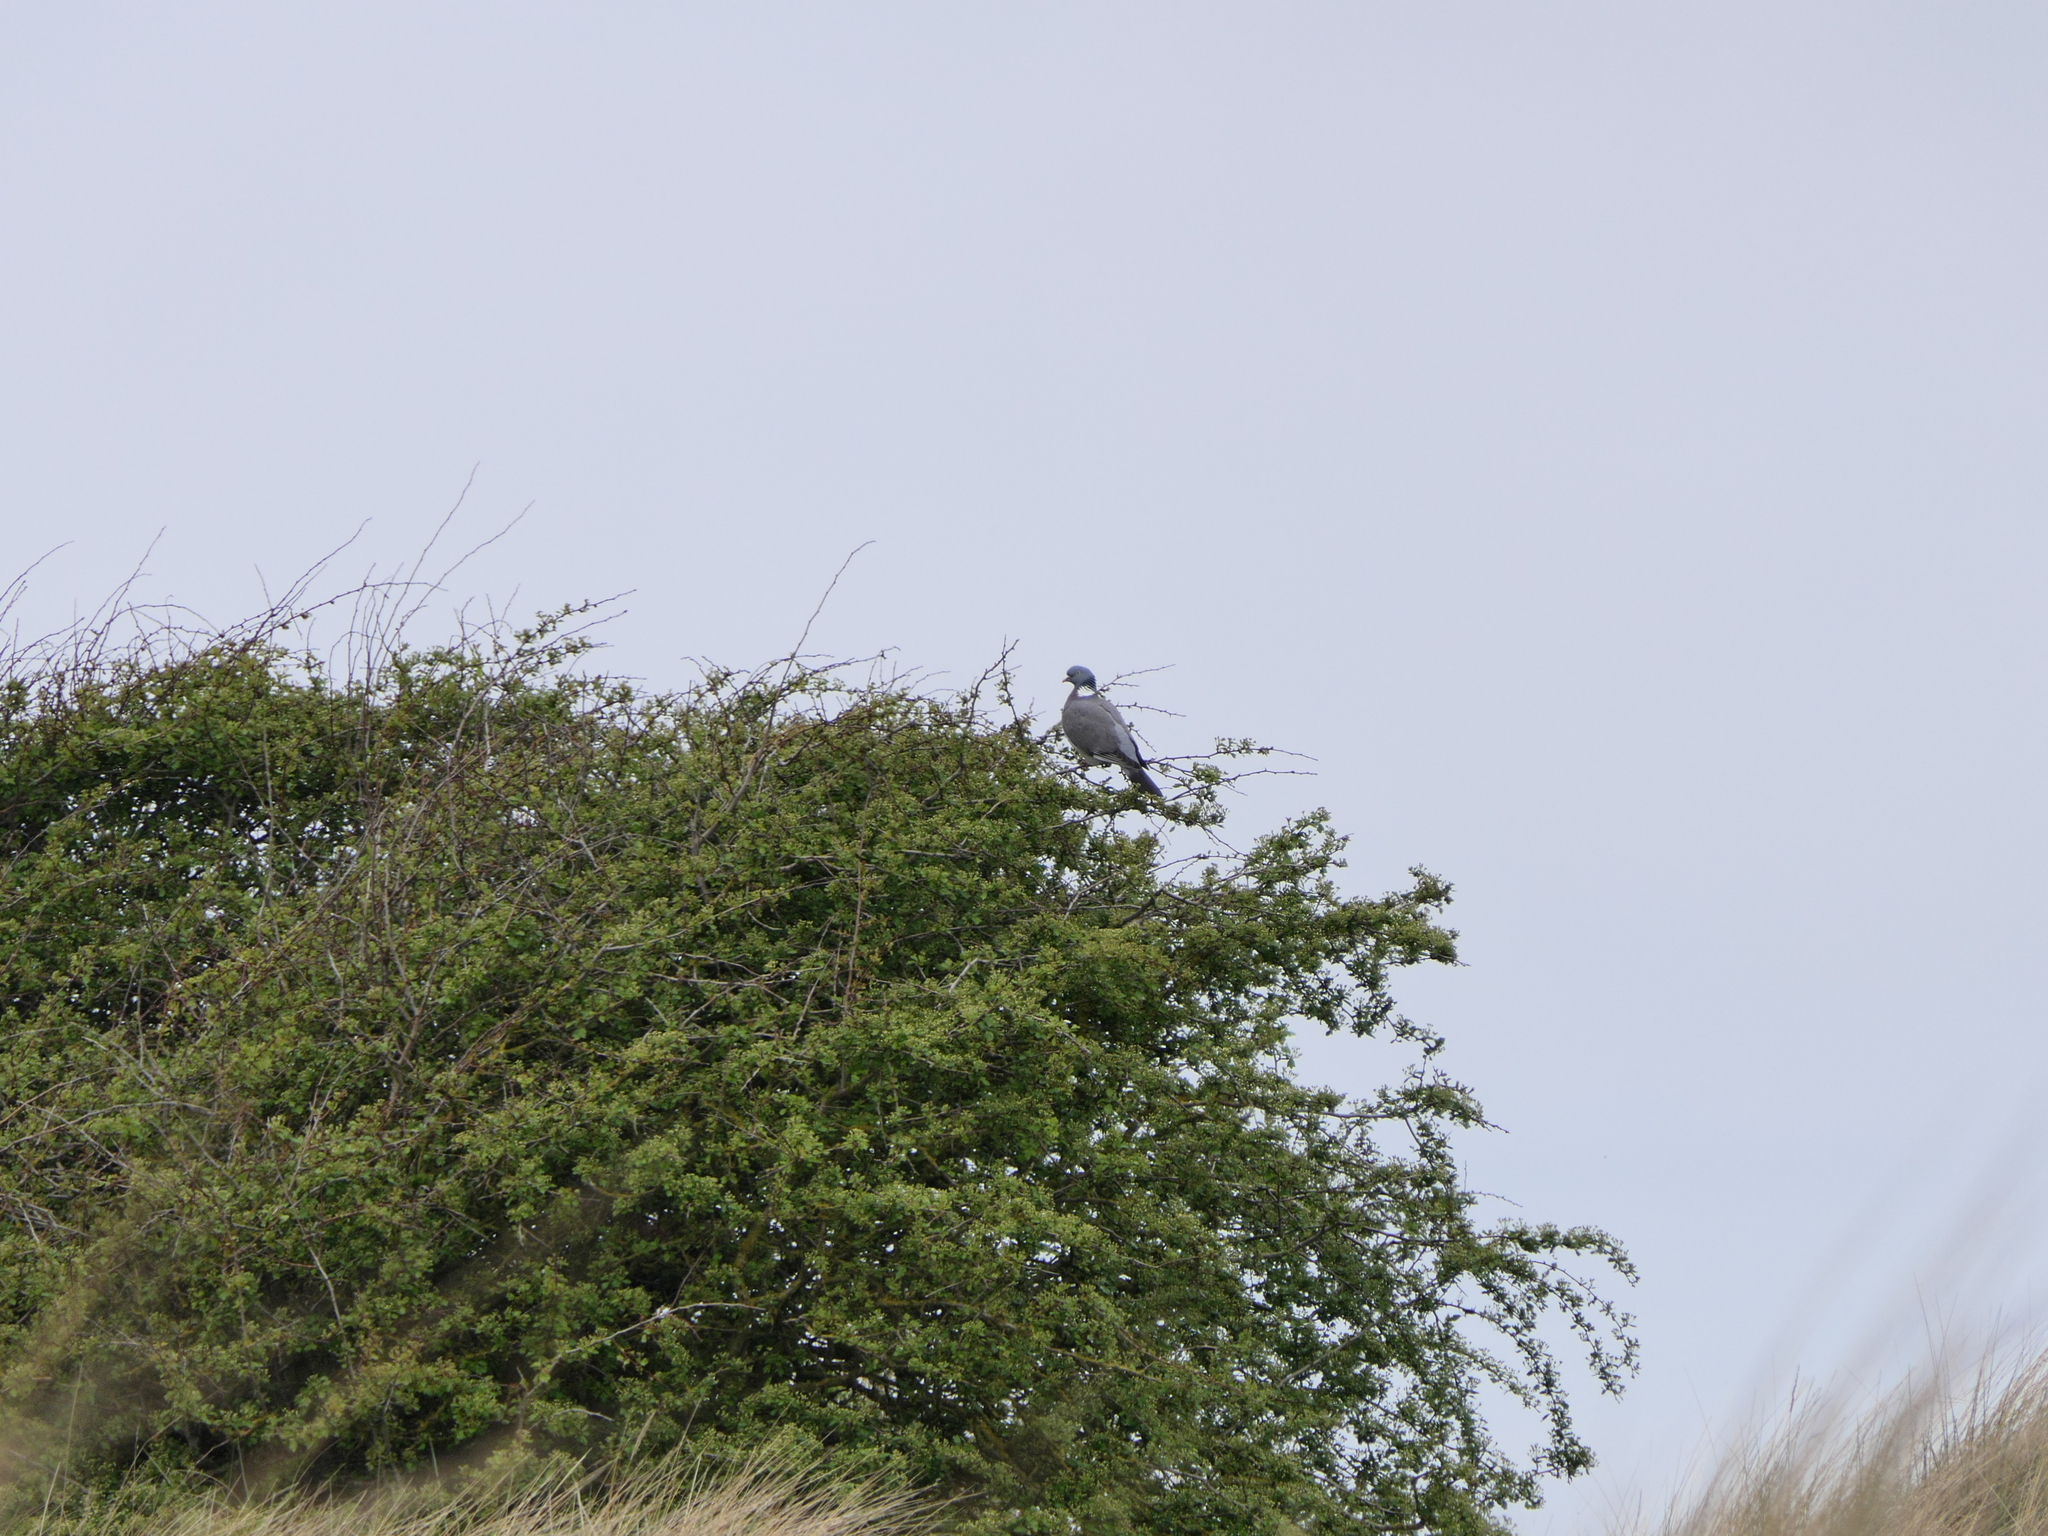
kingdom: Animalia
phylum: Chordata
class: Aves
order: Columbiformes
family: Columbidae
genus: Columba
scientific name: Columba palumbus
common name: Common wood pigeon
